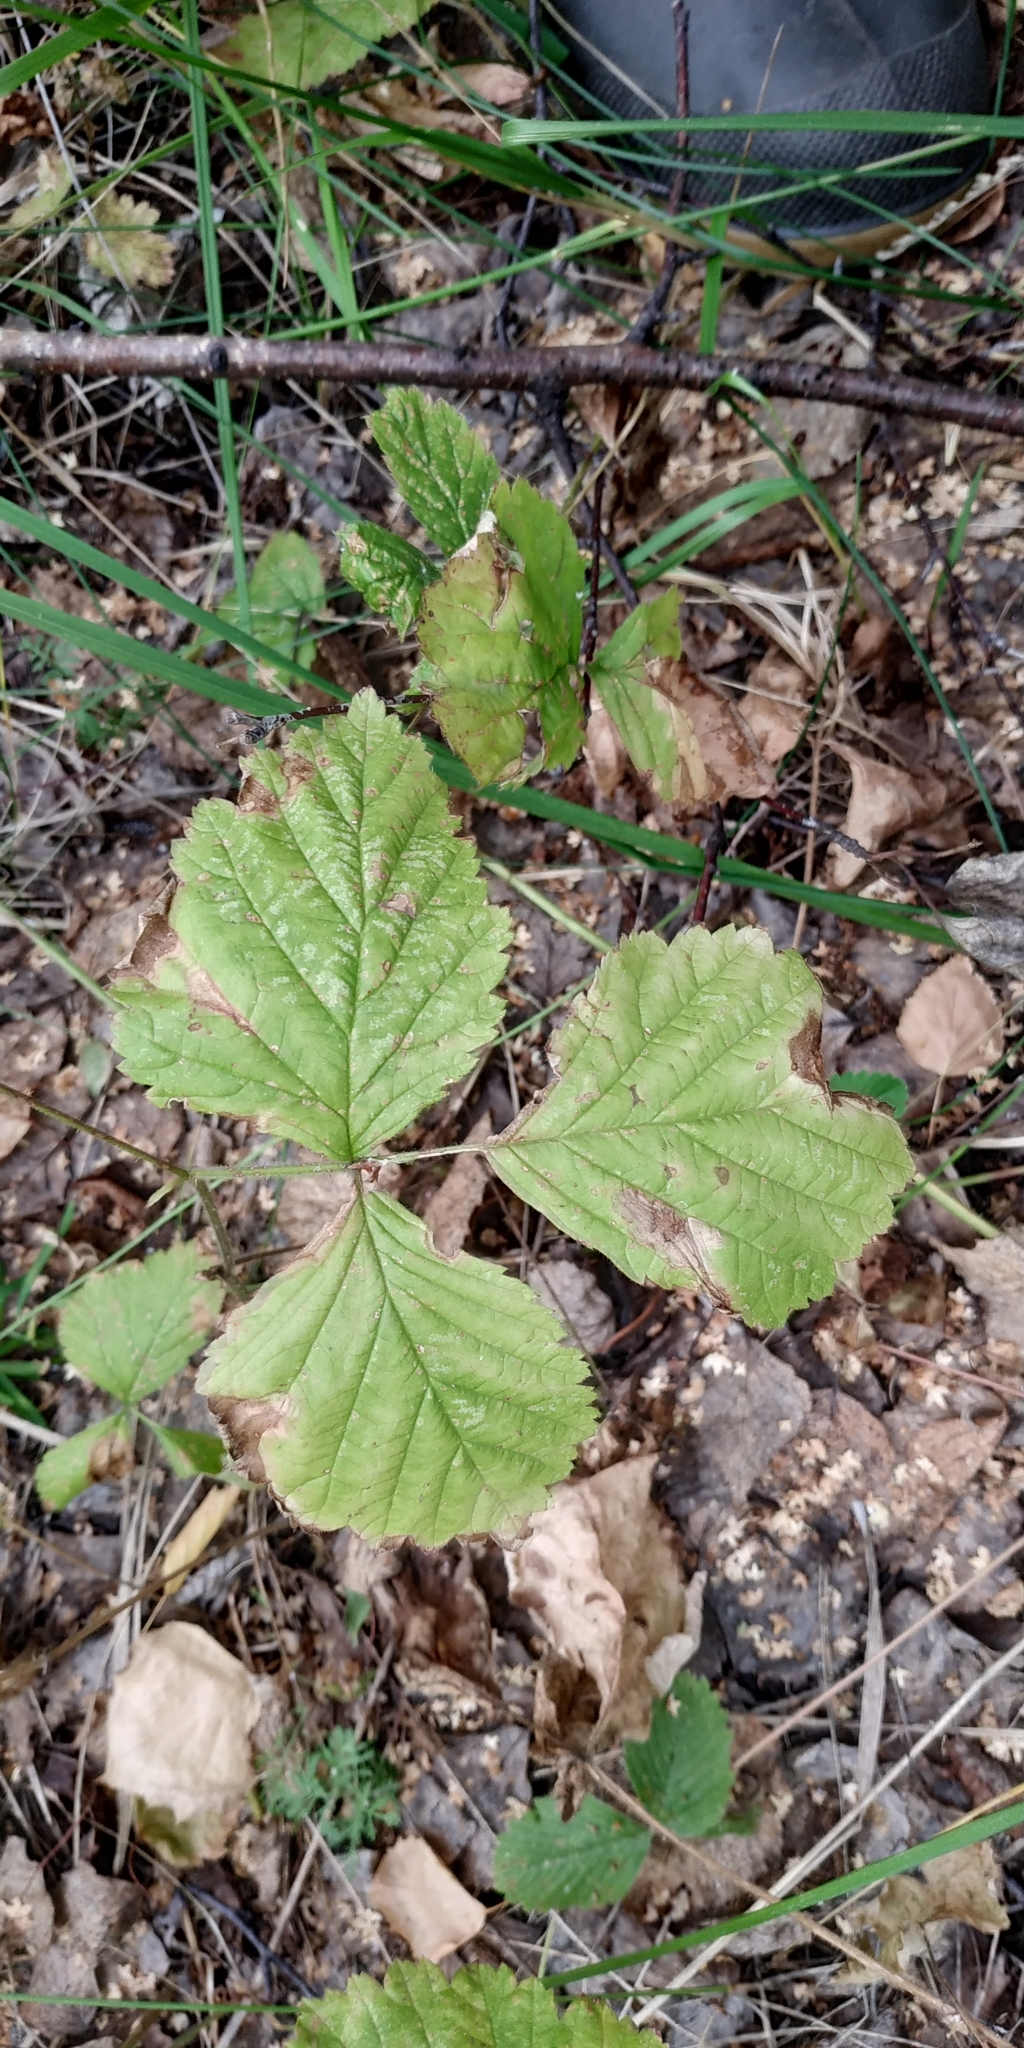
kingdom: Plantae
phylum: Tracheophyta
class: Magnoliopsida
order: Rosales
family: Rosaceae
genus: Rubus
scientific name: Rubus saxatilis
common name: Stone bramble
